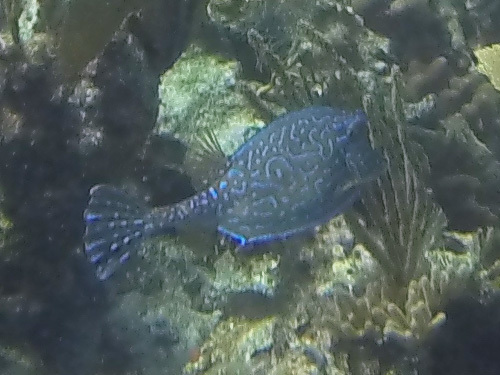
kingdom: Animalia
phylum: Chordata
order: Tetraodontiformes
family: Ostraciidae
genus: Acanthostracion
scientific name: Acanthostracion quadricornis
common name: Scrawled cowfish
